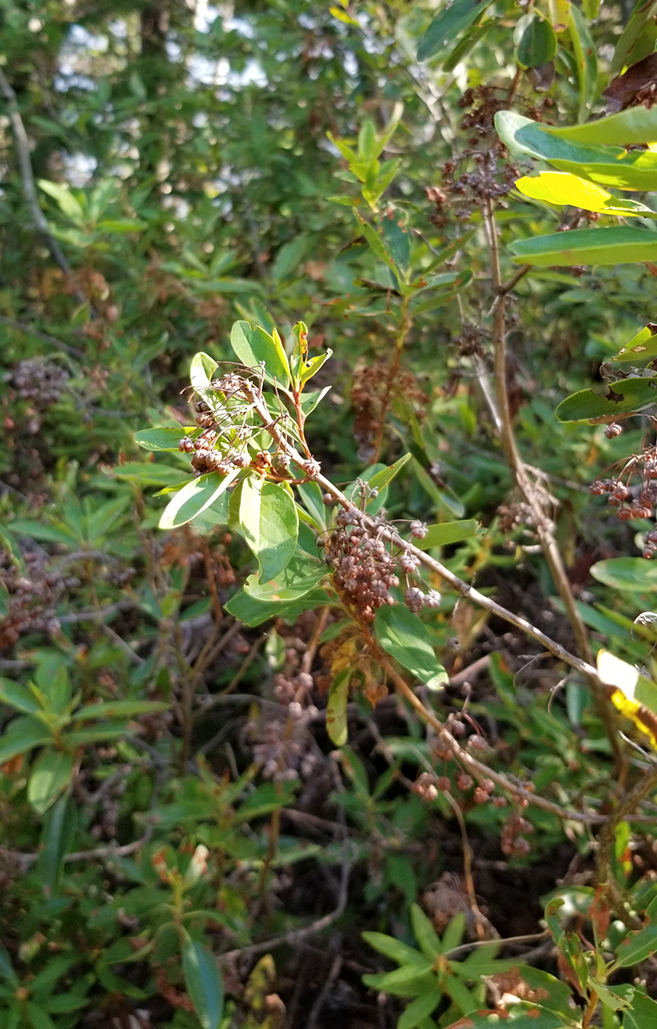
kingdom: Plantae
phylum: Tracheophyta
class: Magnoliopsida
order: Ericales
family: Ericaceae
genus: Kalmia
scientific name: Kalmia angustifolia
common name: Sheep-laurel
